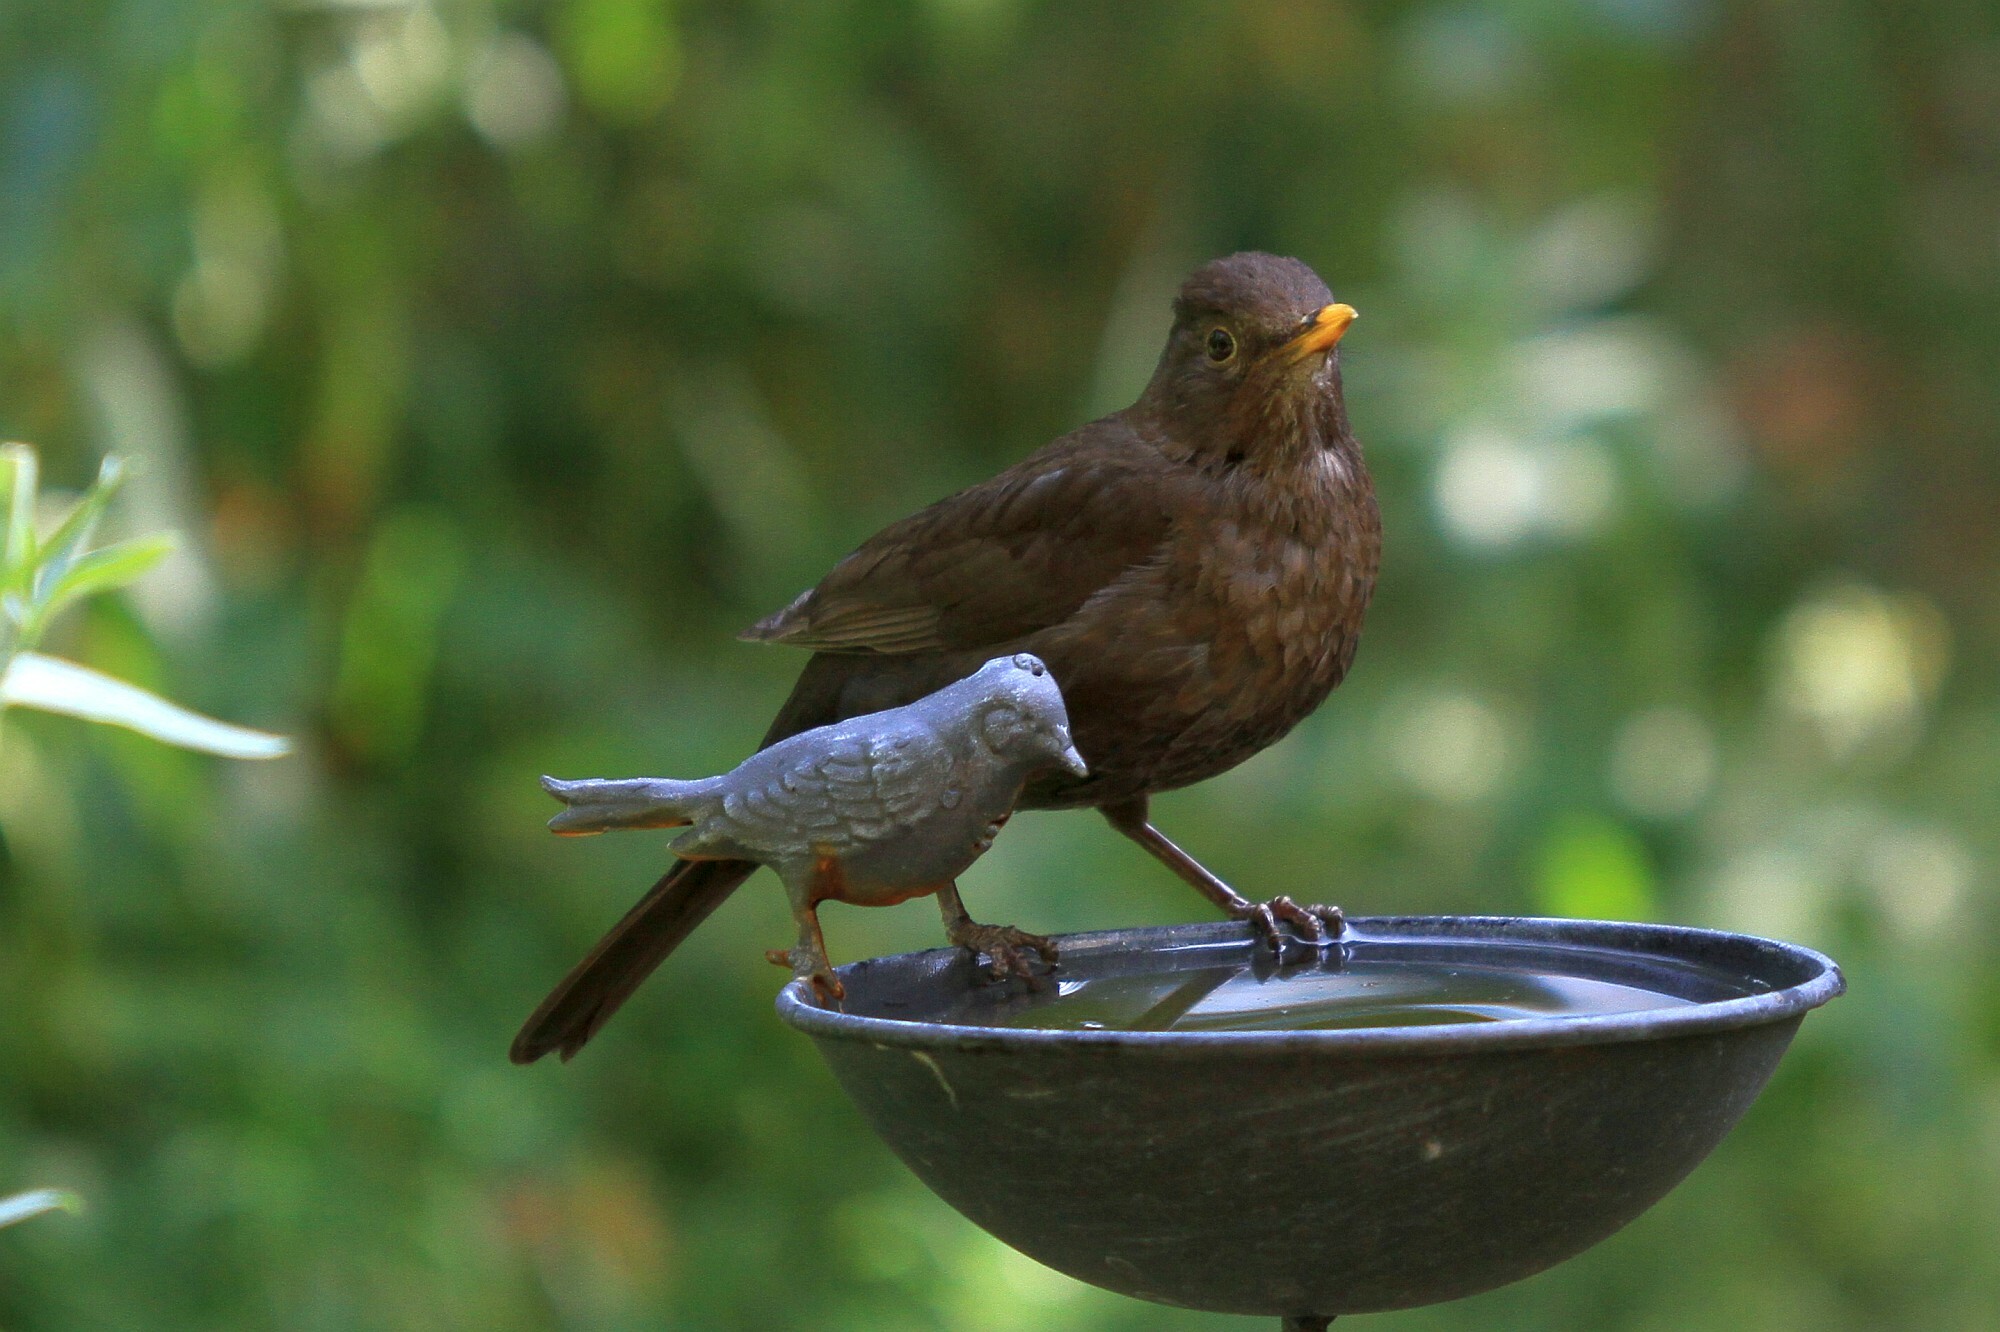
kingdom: Animalia
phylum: Chordata
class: Aves
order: Passeriformes
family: Turdidae
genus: Turdus
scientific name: Turdus merula
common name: Common blackbird
